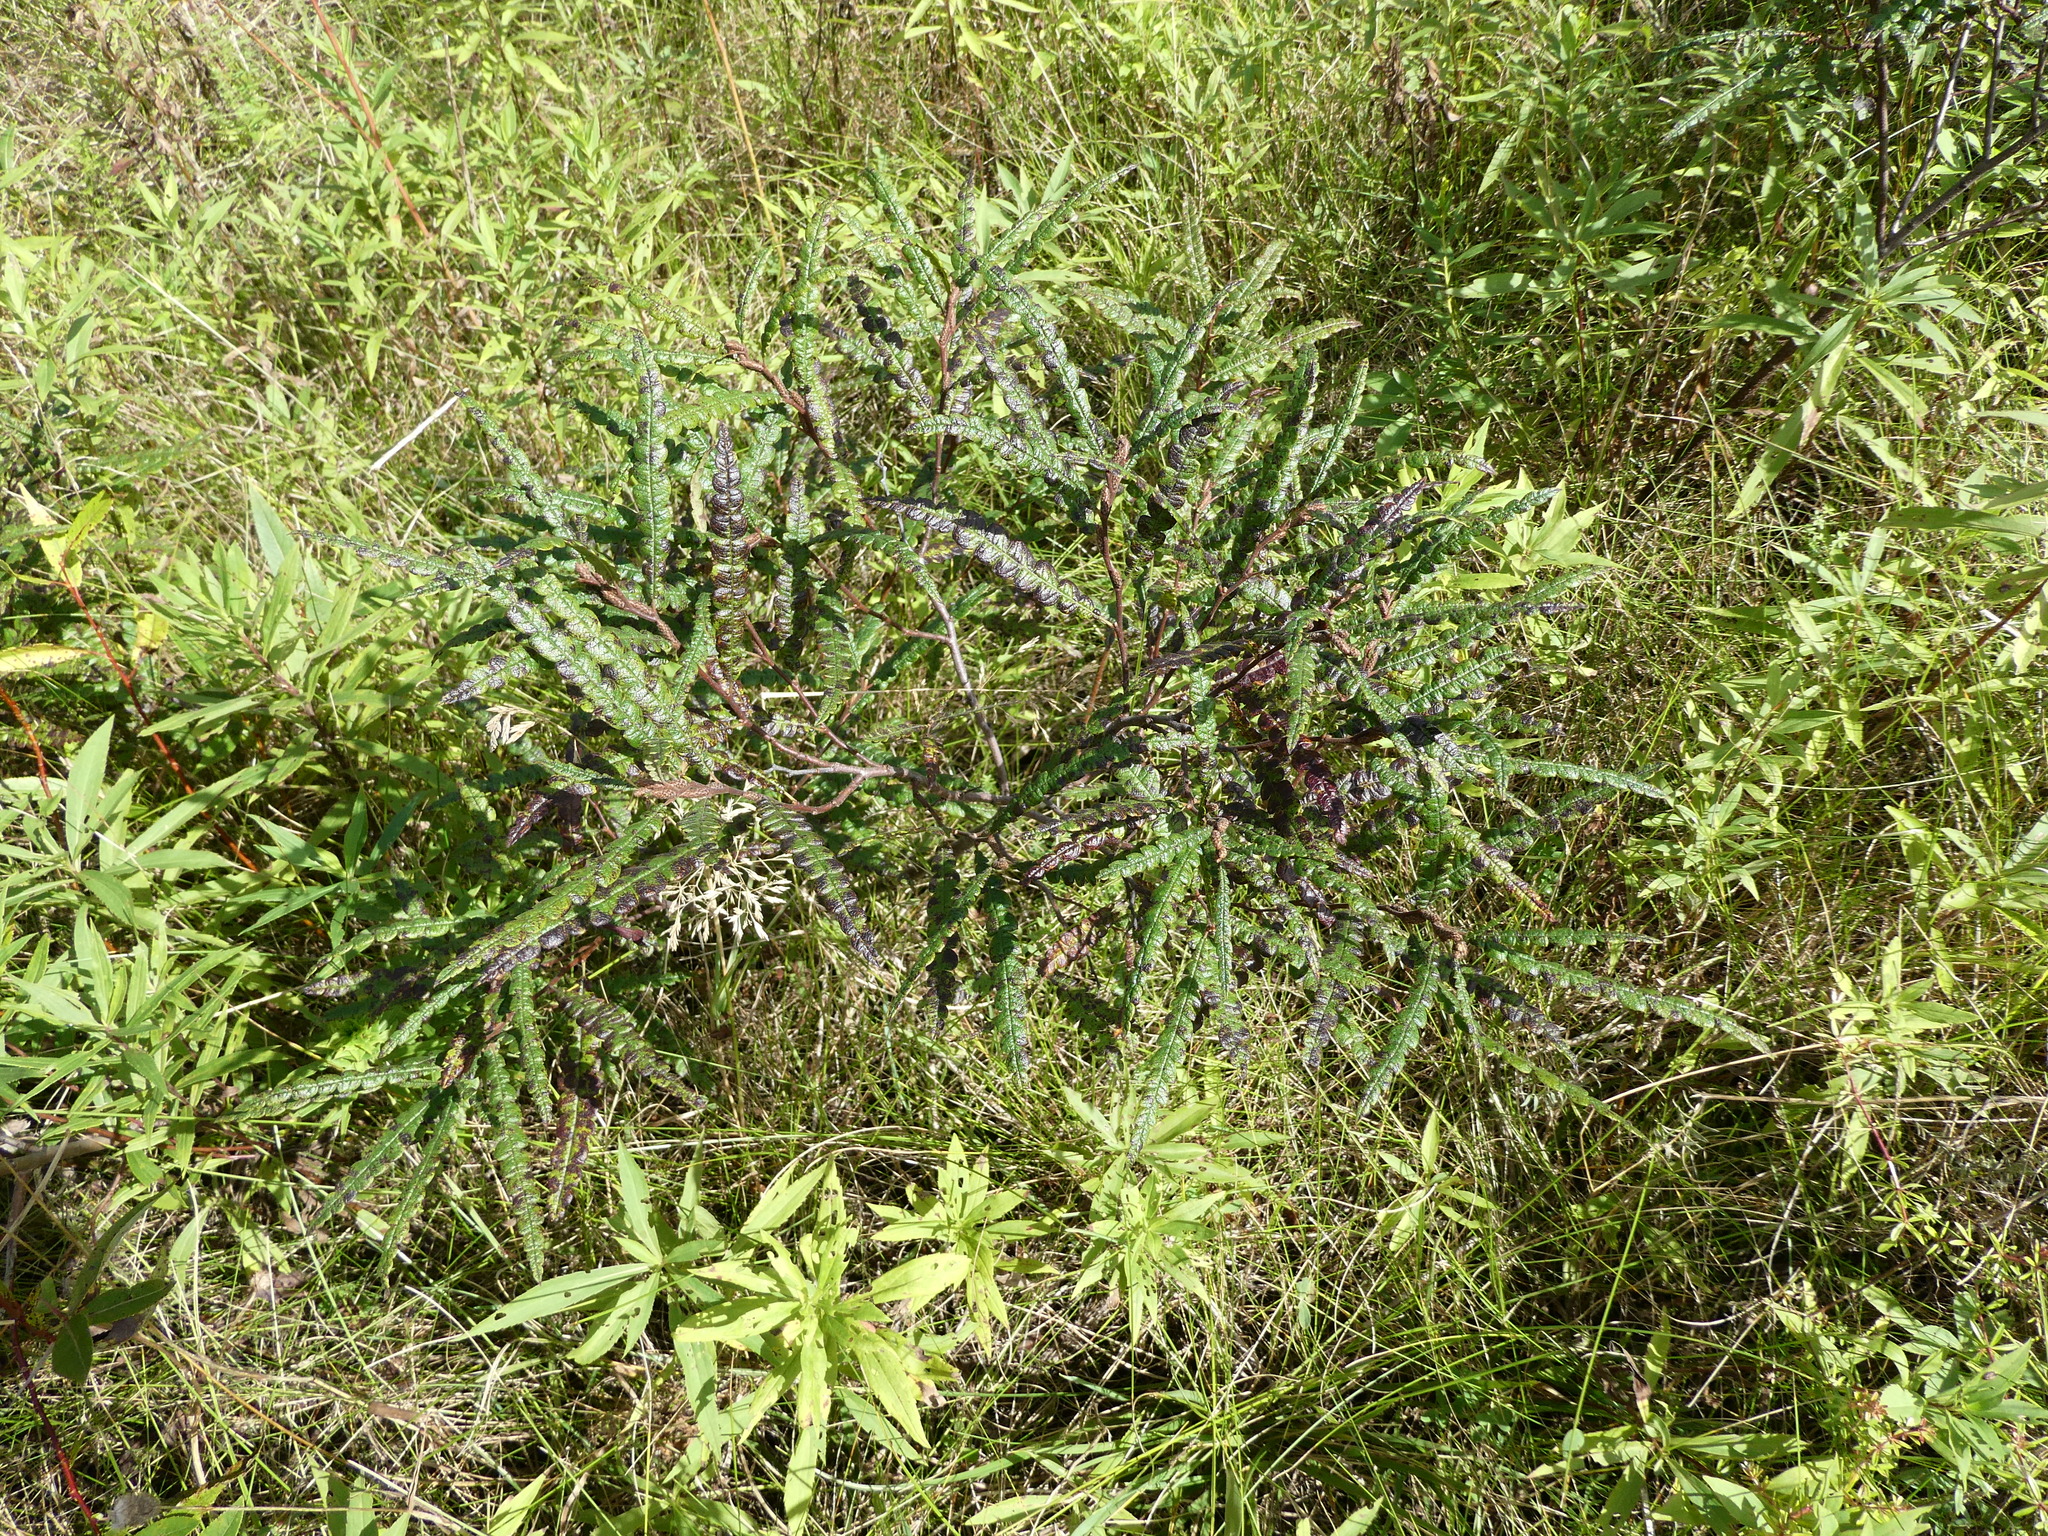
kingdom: Plantae
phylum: Tracheophyta
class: Magnoliopsida
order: Fagales
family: Myricaceae
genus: Comptonia
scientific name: Comptonia peregrina
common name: Sweet-fern
